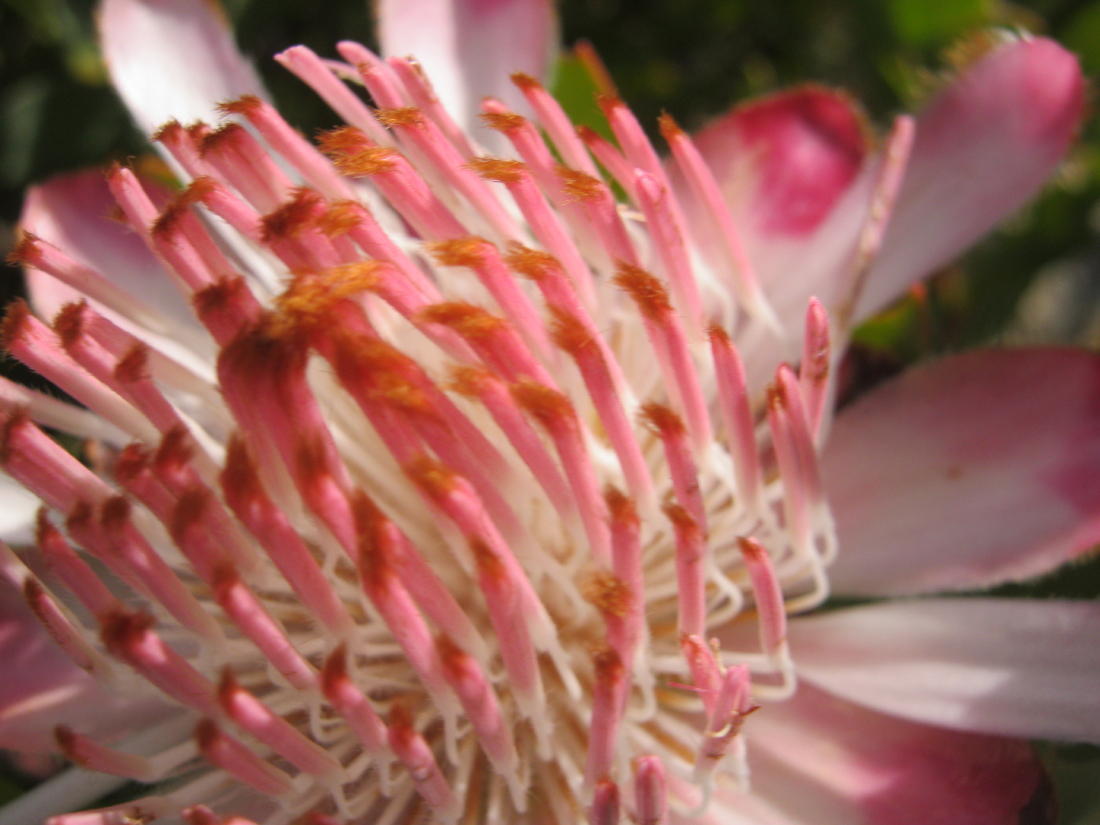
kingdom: Plantae
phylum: Tracheophyta
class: Magnoliopsida
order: Proteales
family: Proteaceae
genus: Protea
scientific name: Protea punctata
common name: Water sugarbush
